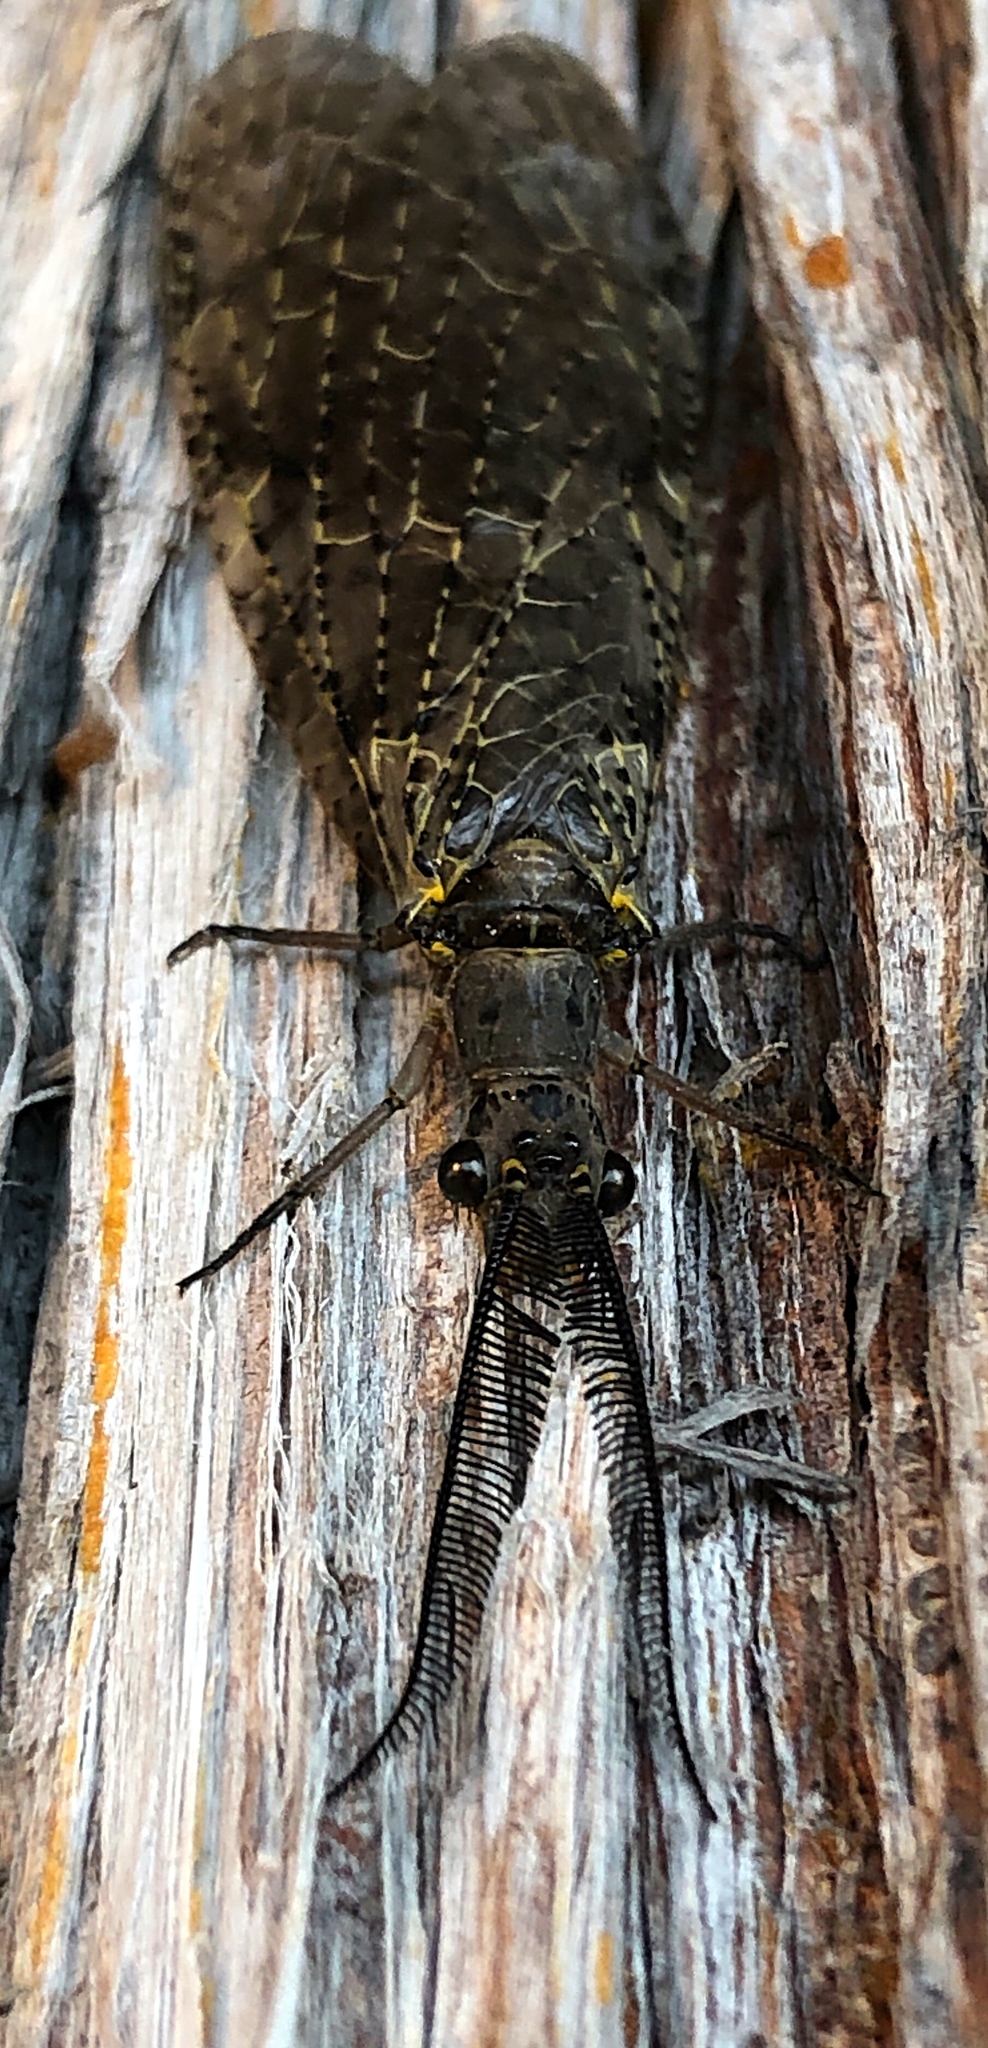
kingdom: Animalia
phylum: Arthropoda
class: Insecta
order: Megaloptera
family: Corydalidae
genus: Chauliodes
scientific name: Chauliodes rastricornis
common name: Spring fishfly
